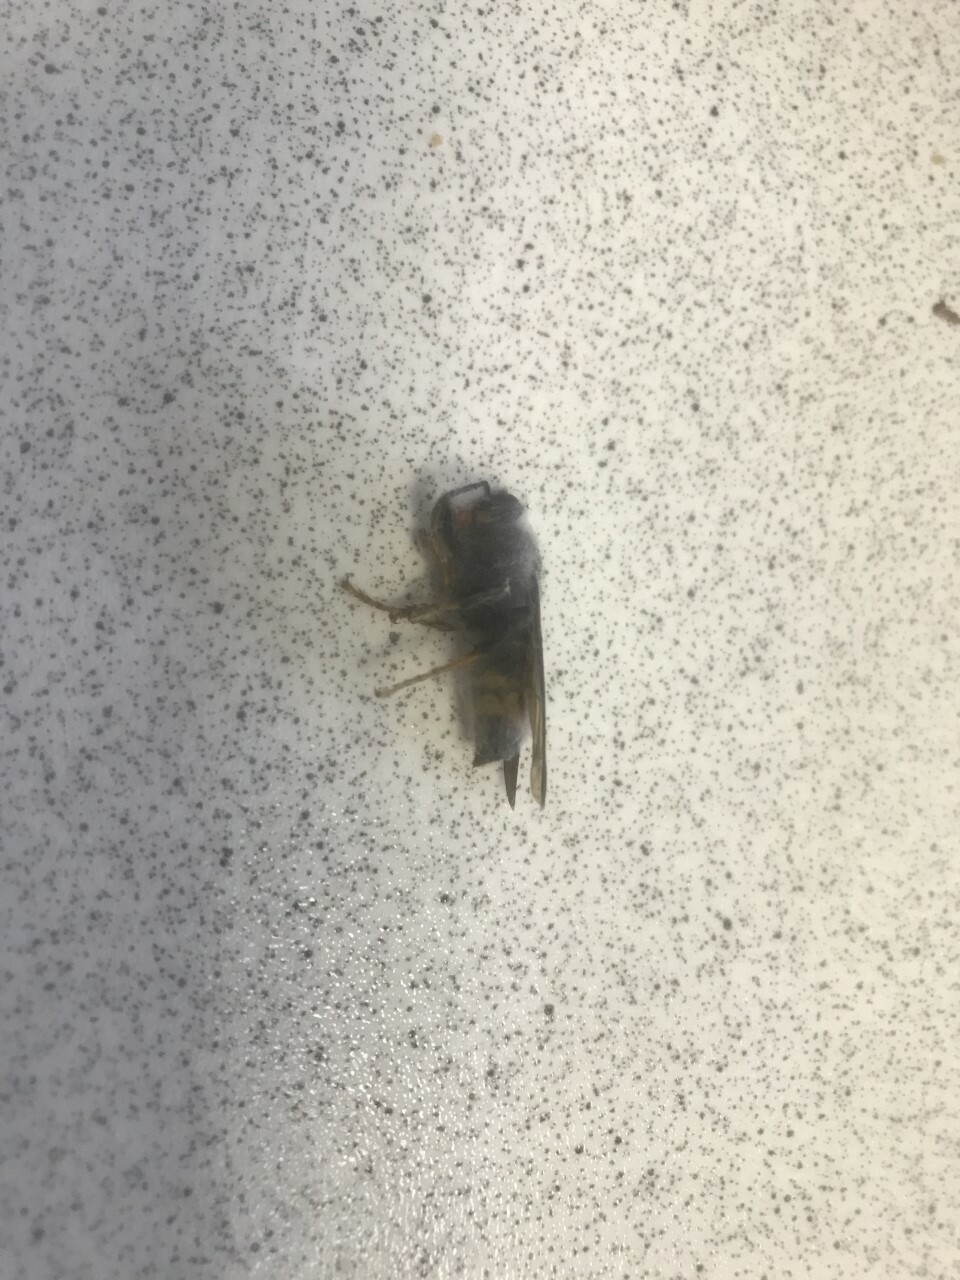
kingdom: Animalia
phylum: Arthropoda
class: Insecta
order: Hymenoptera
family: Vespidae
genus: Vespa
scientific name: Vespa velutina
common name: Asian hornet
